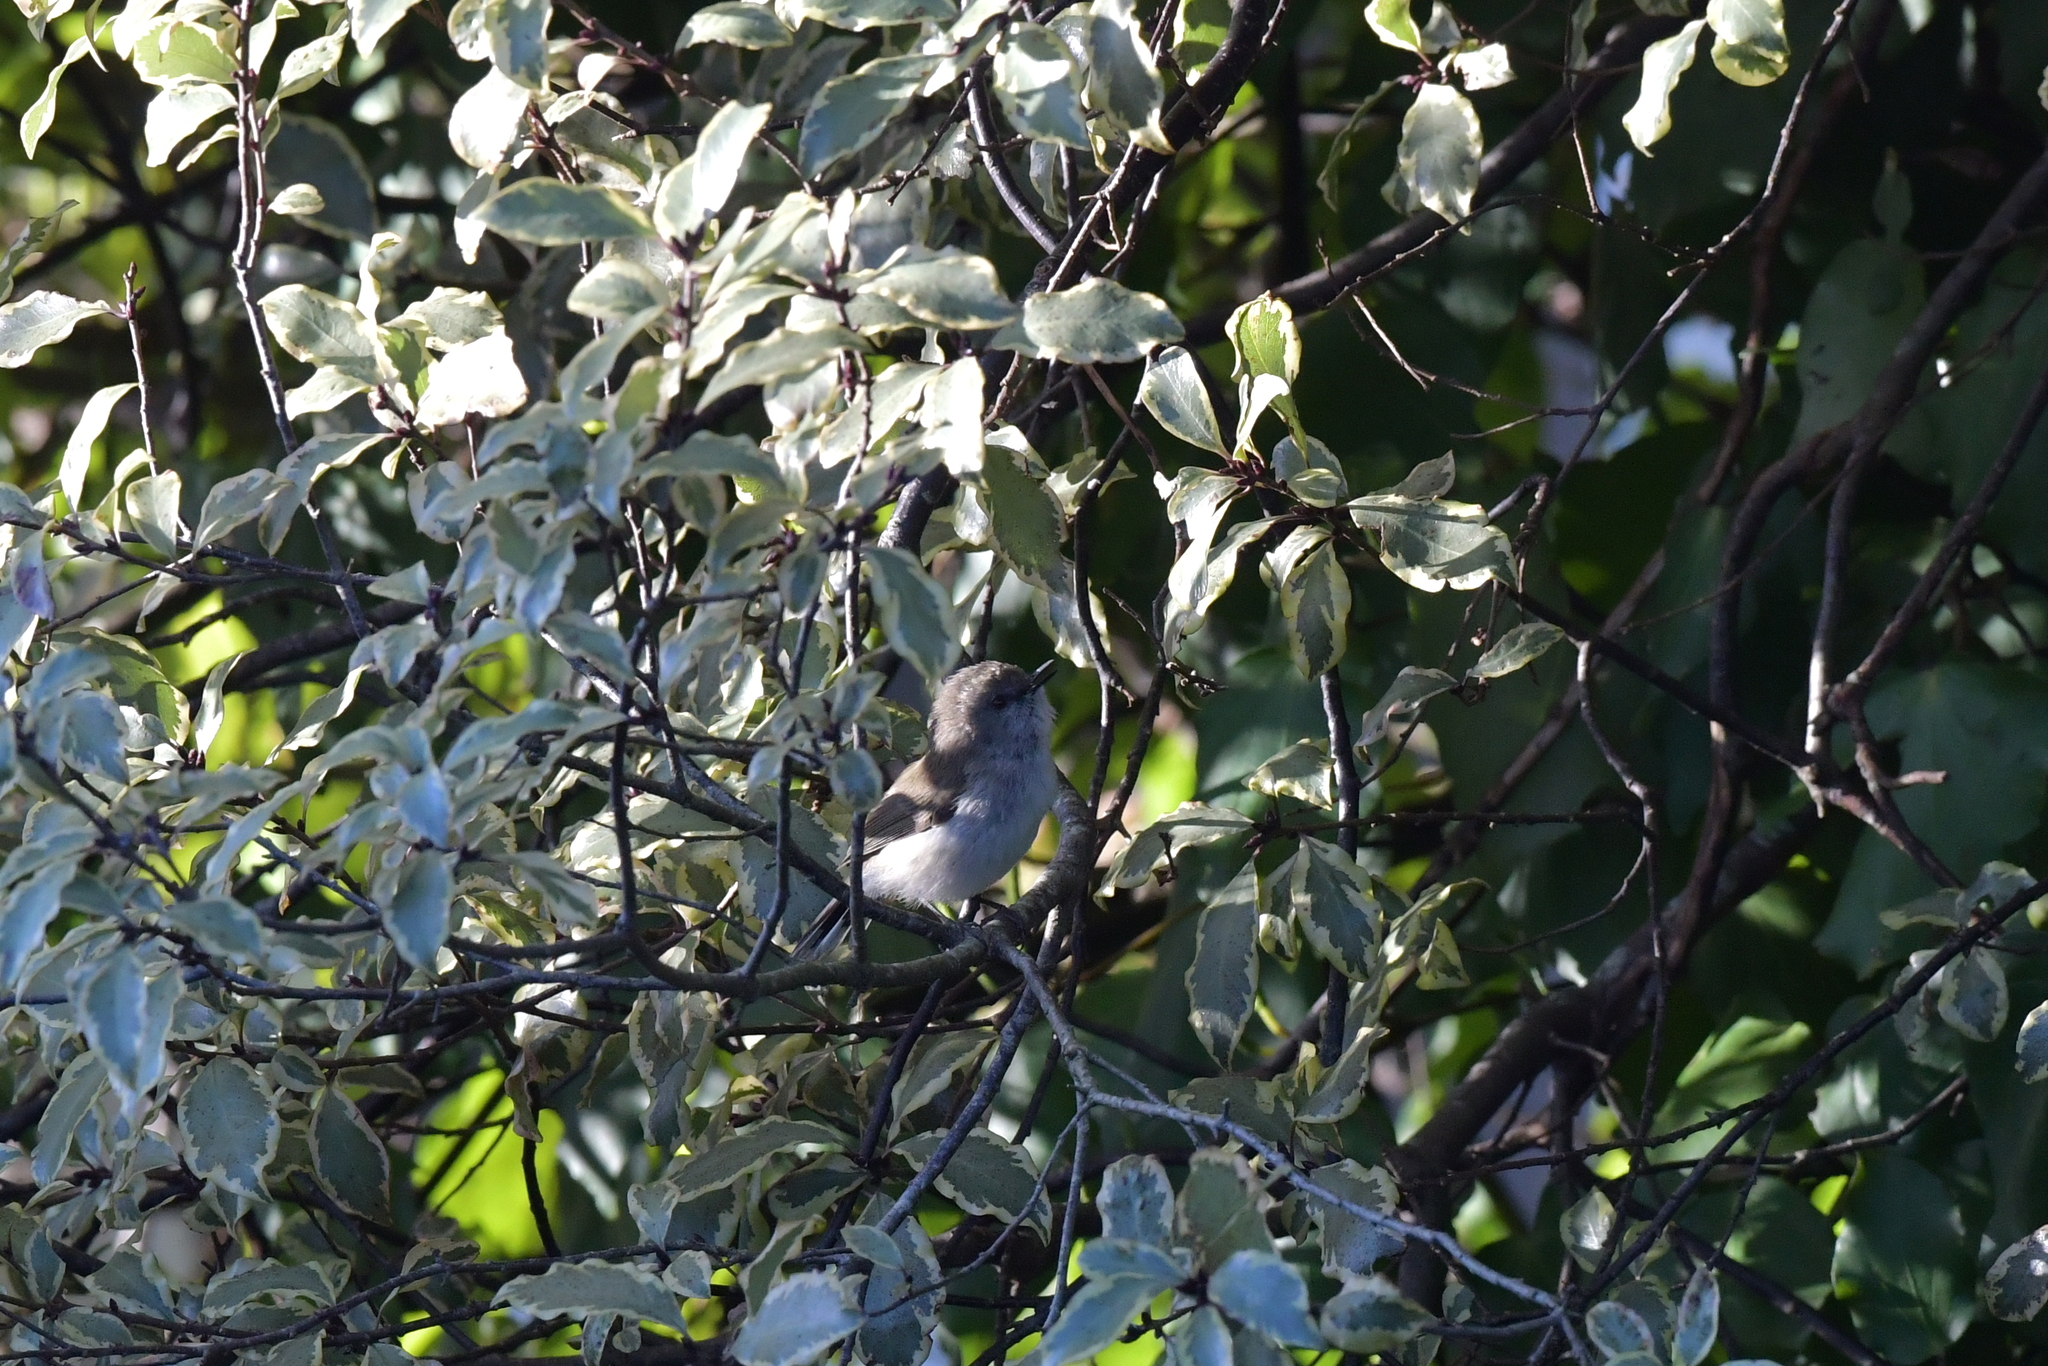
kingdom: Animalia
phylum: Chordata
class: Aves
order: Passeriformes
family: Acanthizidae
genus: Gerygone
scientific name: Gerygone igata
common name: Grey gerygone
